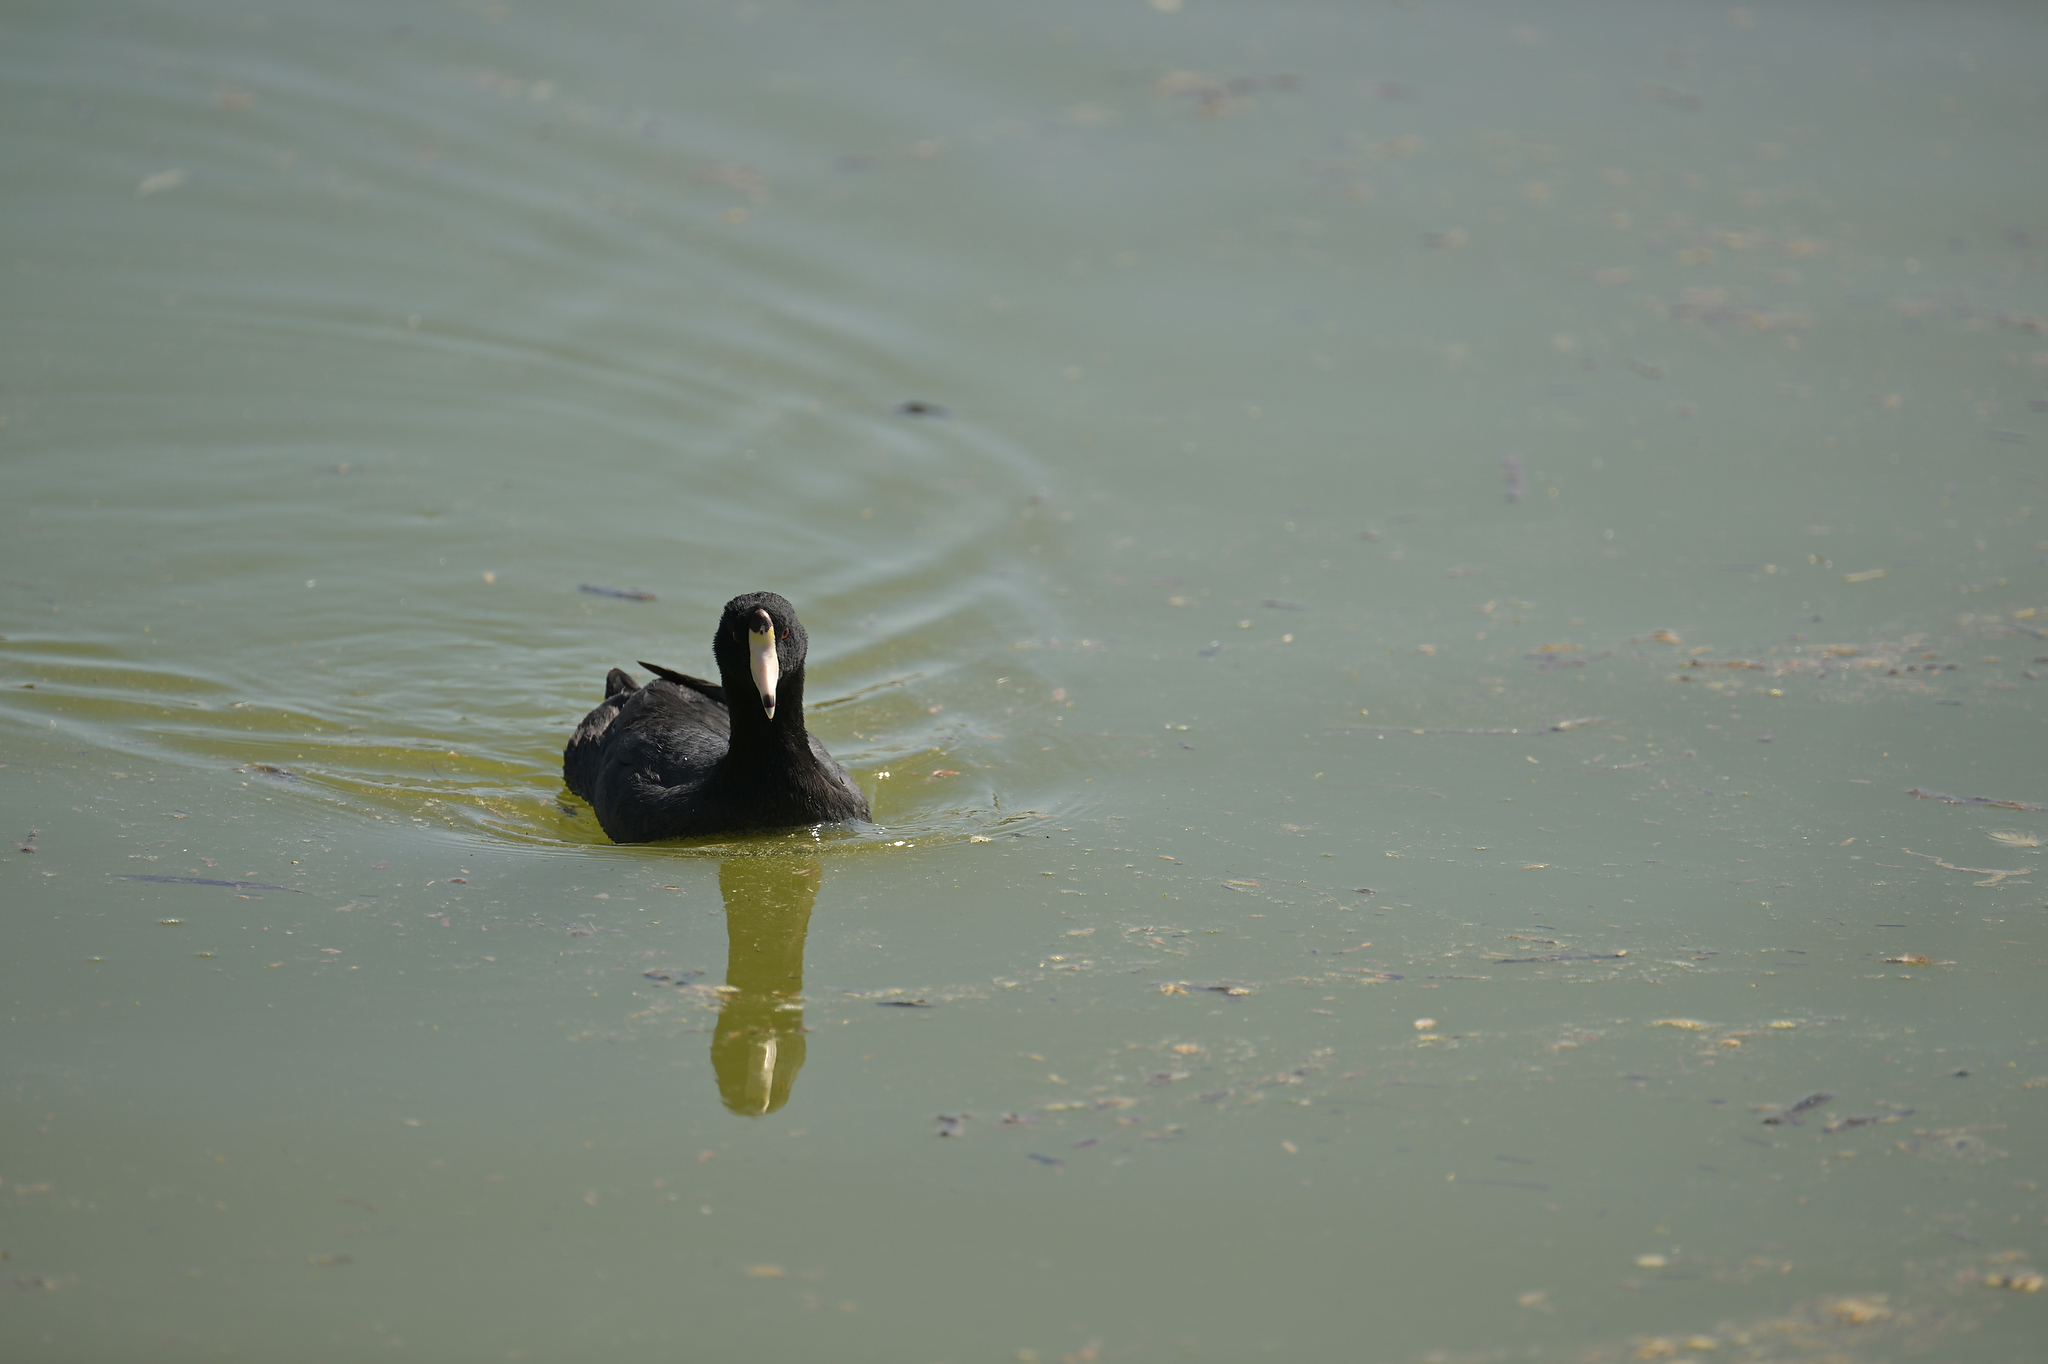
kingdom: Animalia
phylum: Chordata
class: Aves
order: Gruiformes
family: Rallidae
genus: Fulica
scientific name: Fulica americana
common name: American coot
